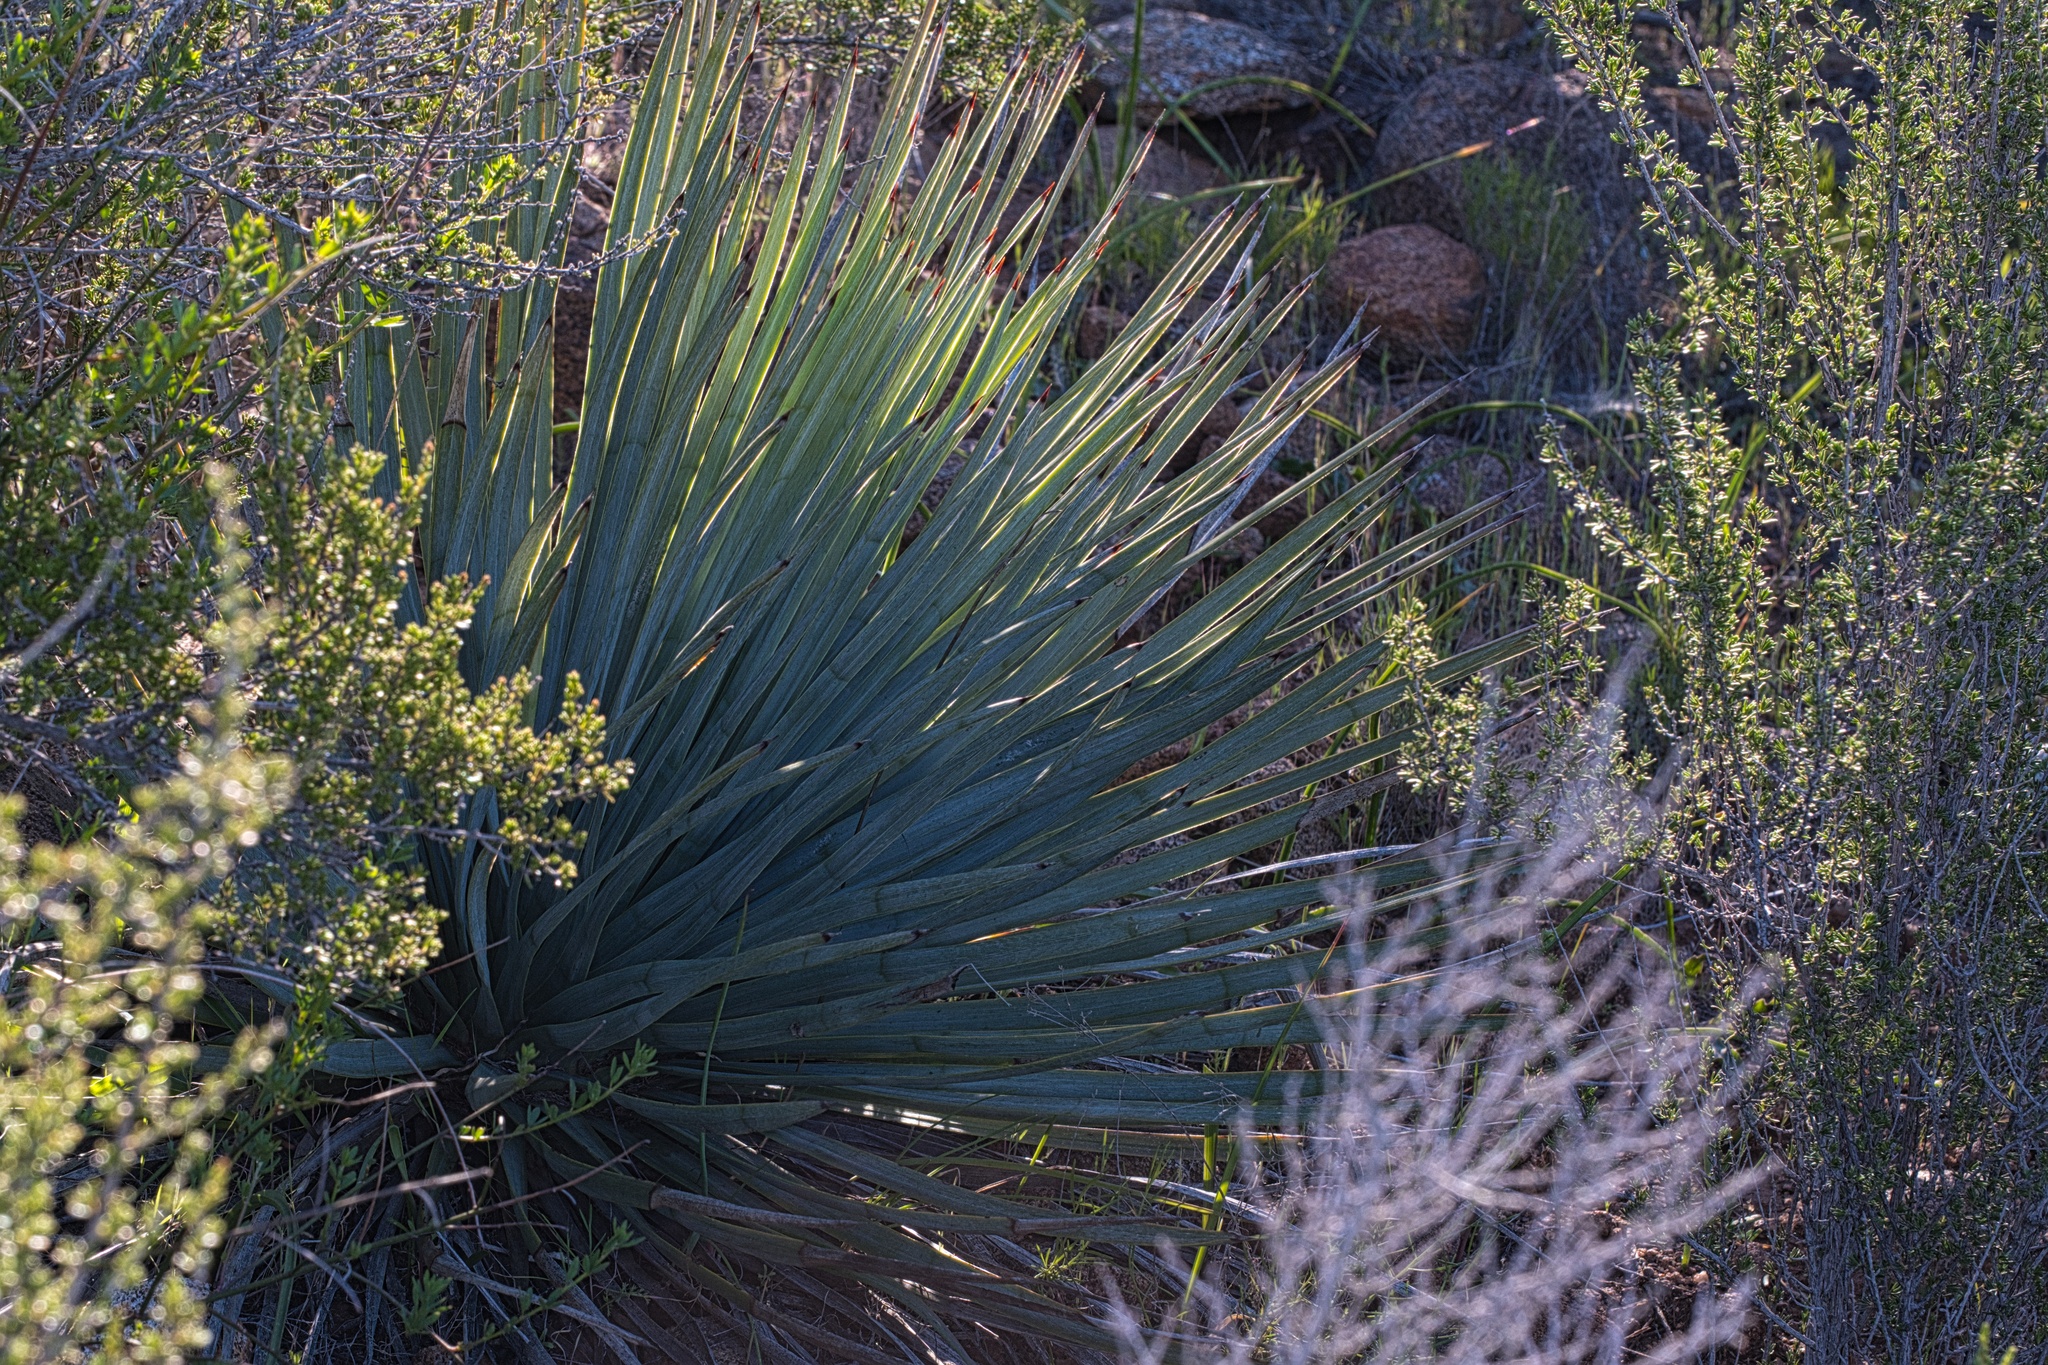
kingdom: Plantae
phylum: Tracheophyta
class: Liliopsida
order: Asparagales
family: Asparagaceae
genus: Hesperoyucca
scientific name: Hesperoyucca whipplei
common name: Our lord's-candle
